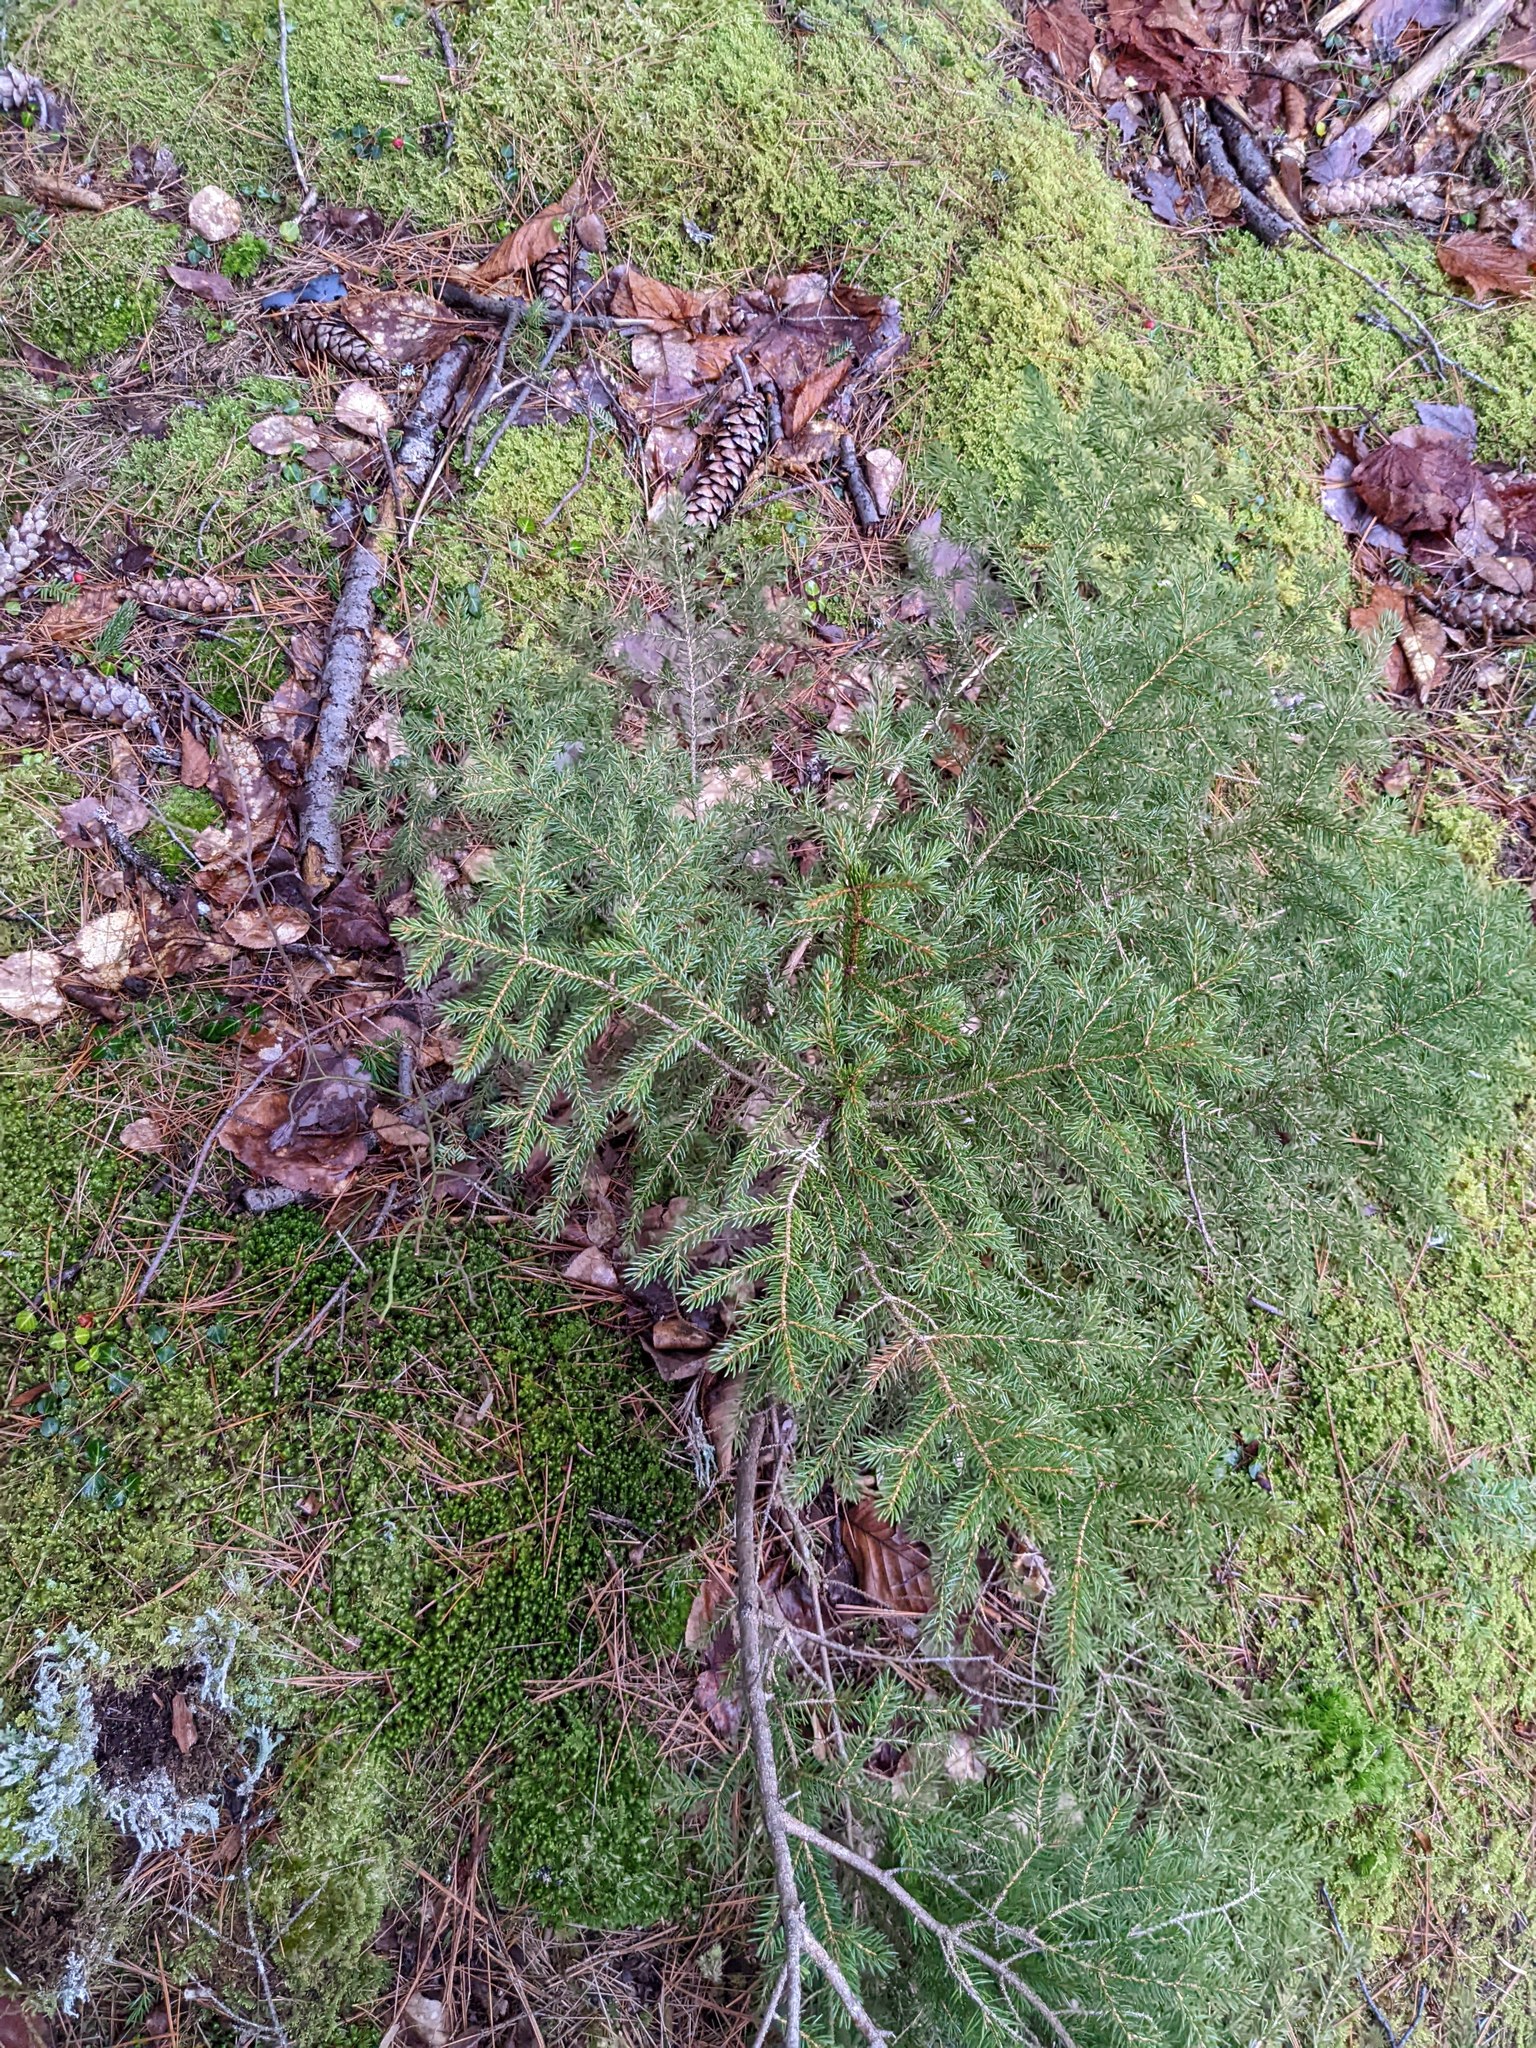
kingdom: Plantae
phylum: Tracheophyta
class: Pinopsida
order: Pinales
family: Pinaceae
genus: Picea
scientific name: Picea rubens
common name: Red spruce
